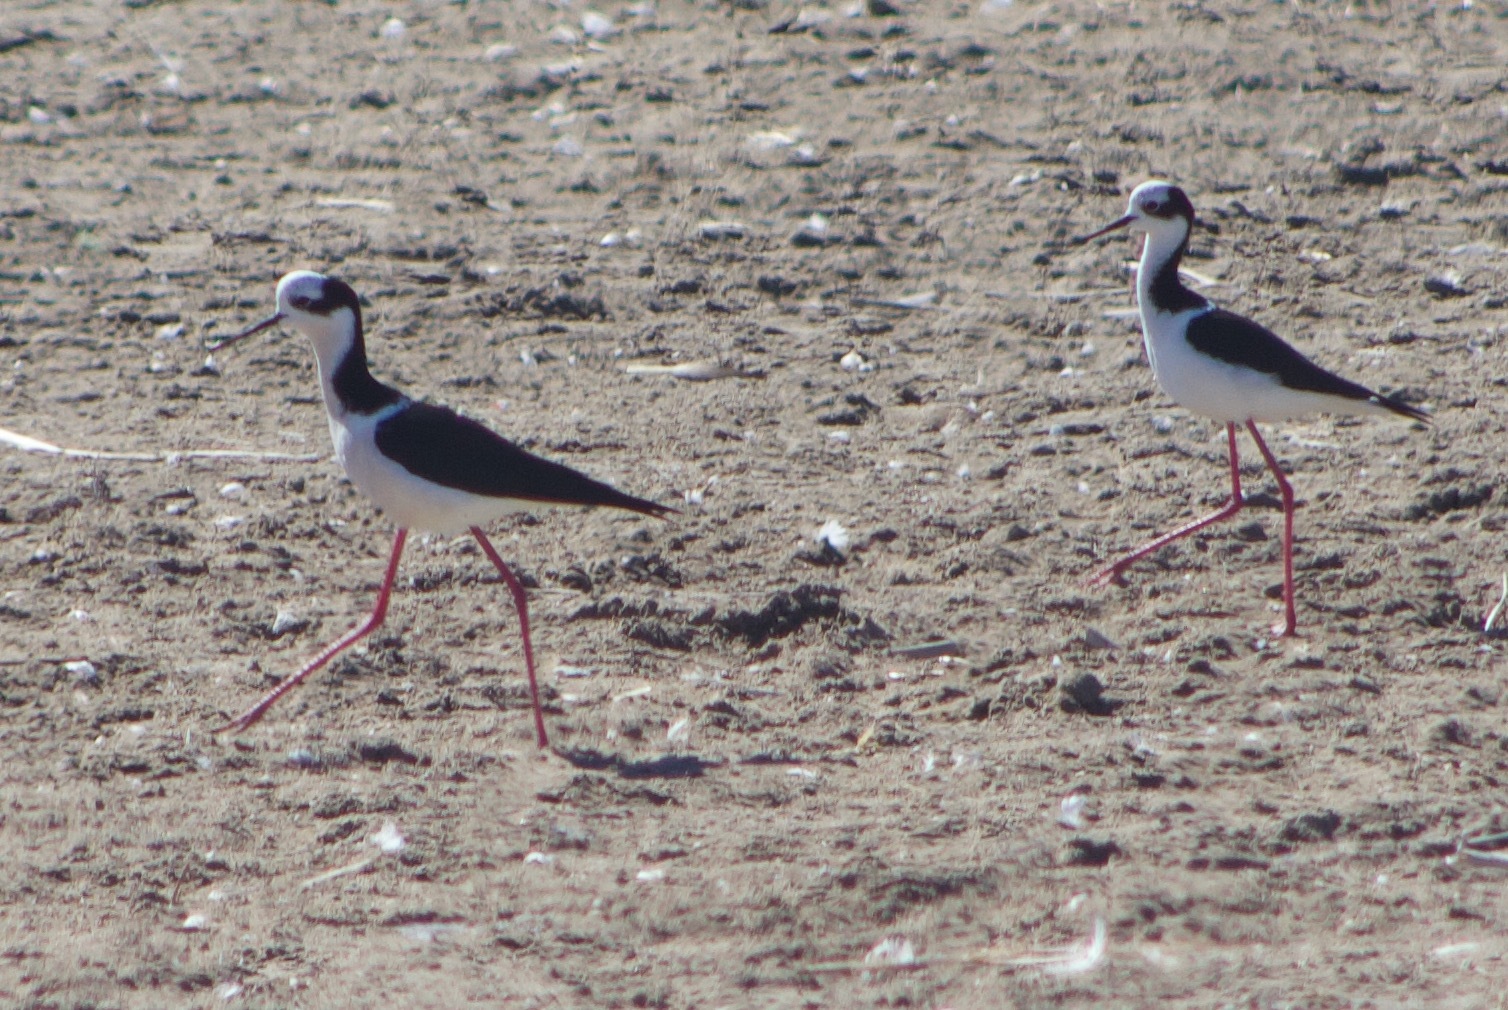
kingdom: Animalia
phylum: Chordata
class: Aves
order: Charadriiformes
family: Recurvirostridae
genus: Himantopus
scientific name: Himantopus mexicanus
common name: Black-necked stilt
